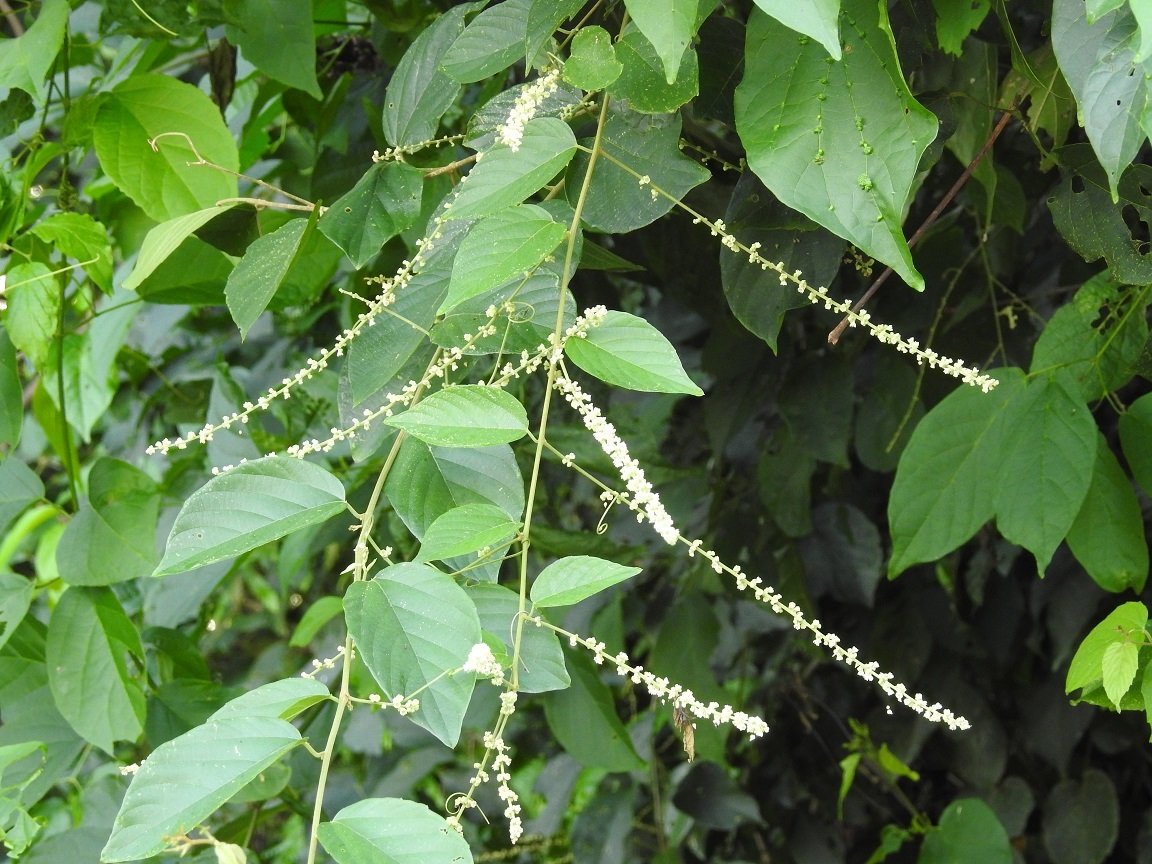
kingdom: Plantae
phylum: Tracheophyta
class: Magnoliopsida
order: Rosales
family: Rhamnaceae
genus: Gouania
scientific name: Gouania lupuloides
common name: Chewstick
